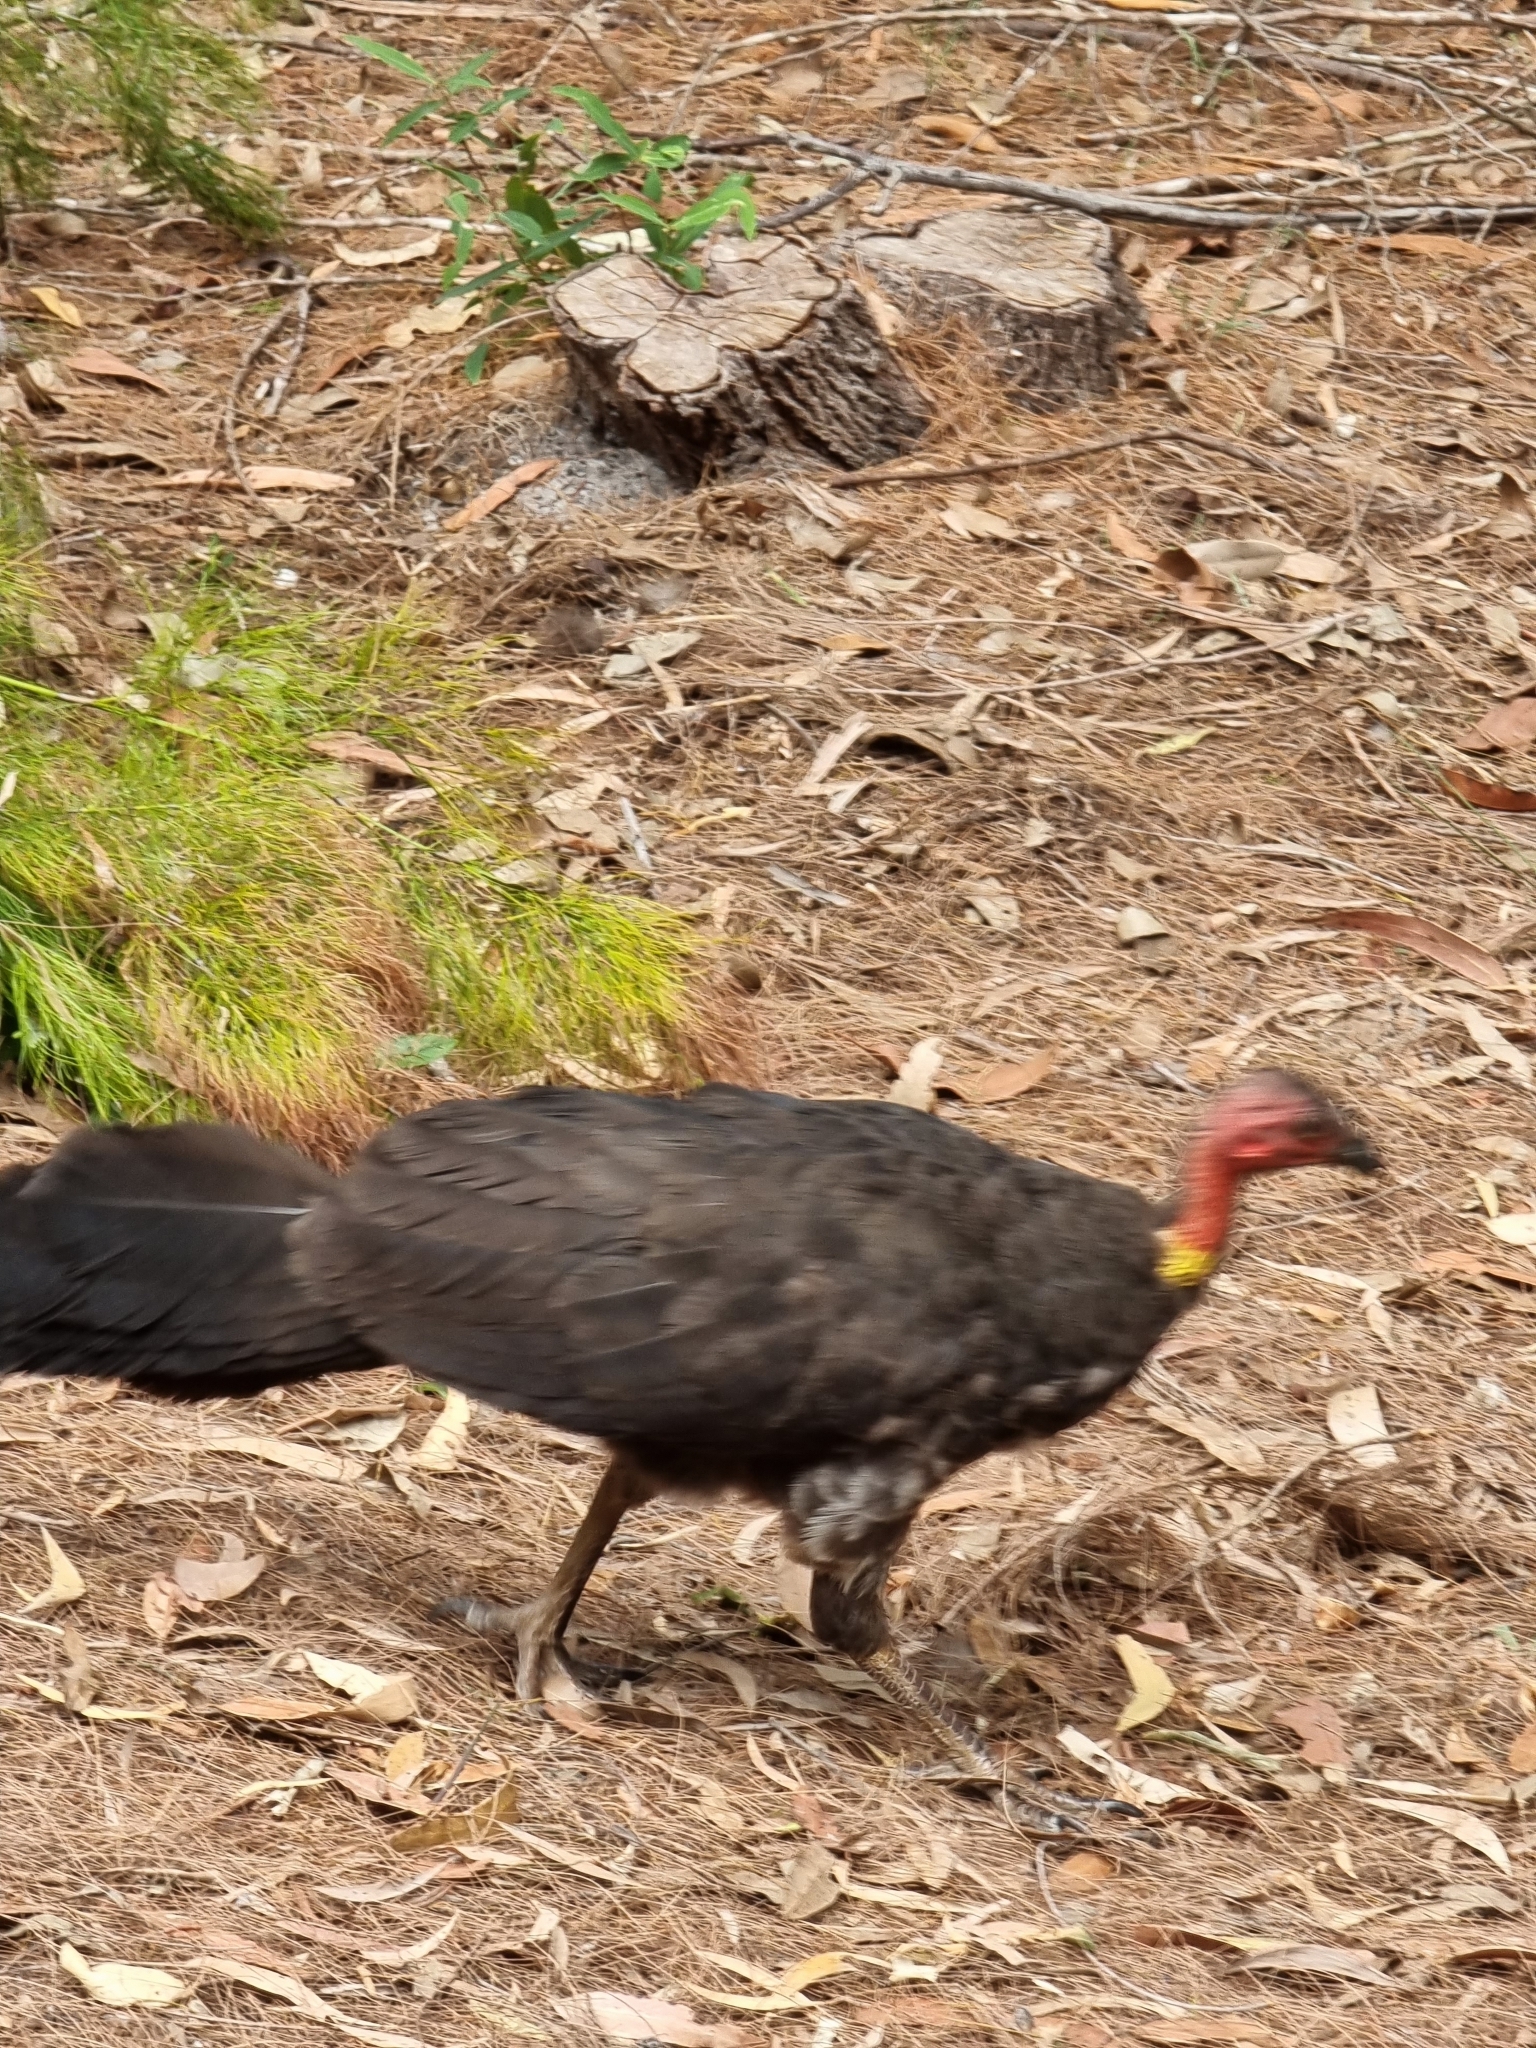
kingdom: Animalia
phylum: Chordata
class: Aves
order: Galliformes
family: Megapodiidae
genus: Alectura
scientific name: Alectura lathami
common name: Australian brushturkey
